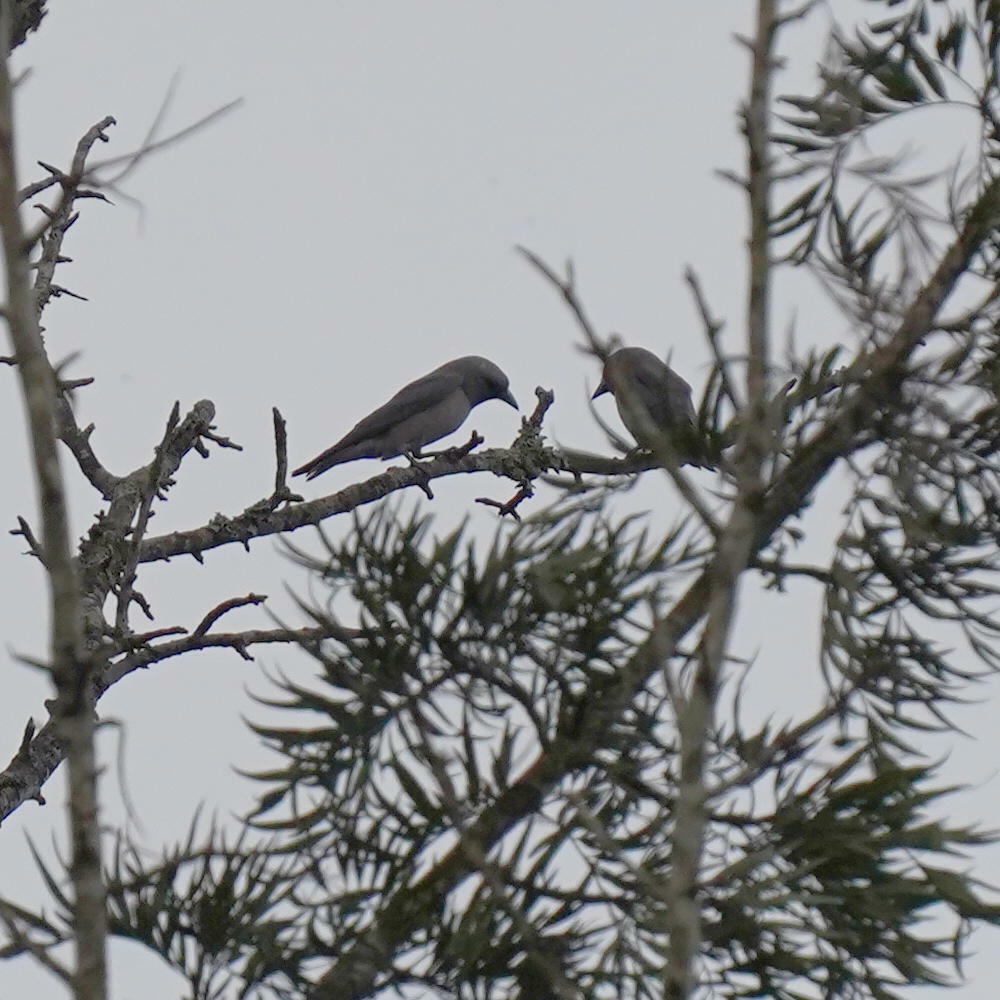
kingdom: Animalia
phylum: Chordata
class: Aves
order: Passeriformes
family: Artamidae
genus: Artamus
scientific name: Artamus fuscus
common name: Ashy woodswallow
